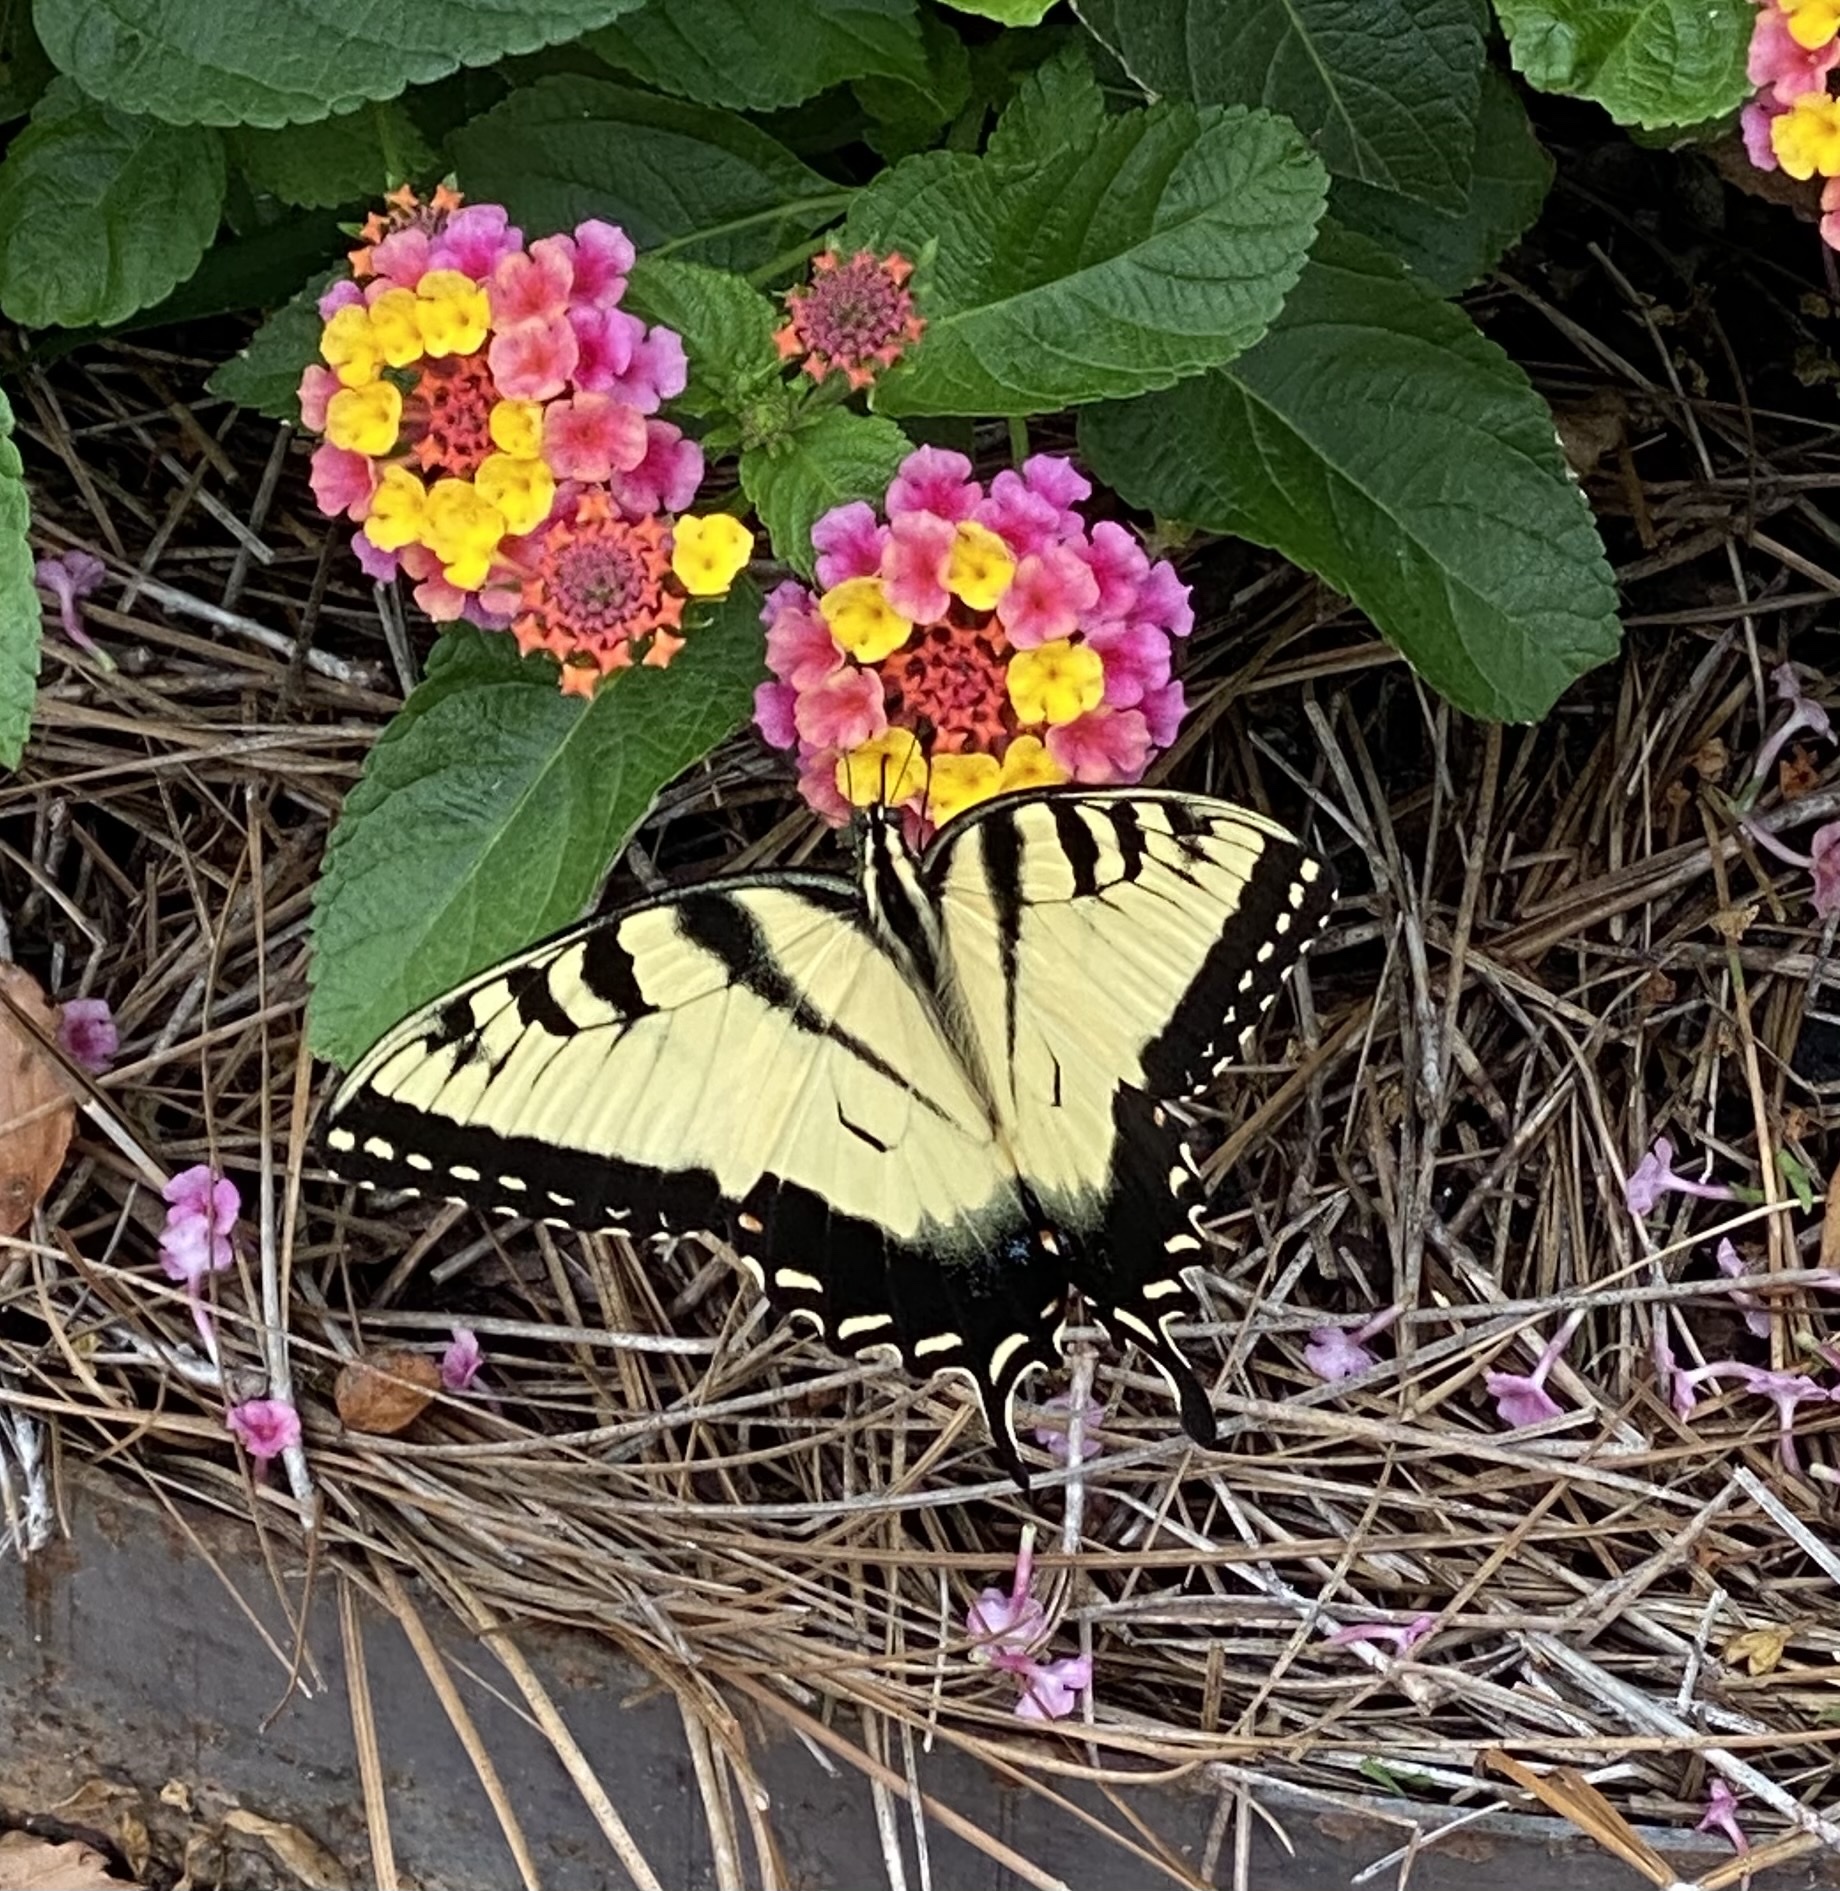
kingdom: Animalia
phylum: Arthropoda
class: Insecta
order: Lepidoptera
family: Papilionidae
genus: Papilio
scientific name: Papilio glaucus
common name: Tiger swallowtail
